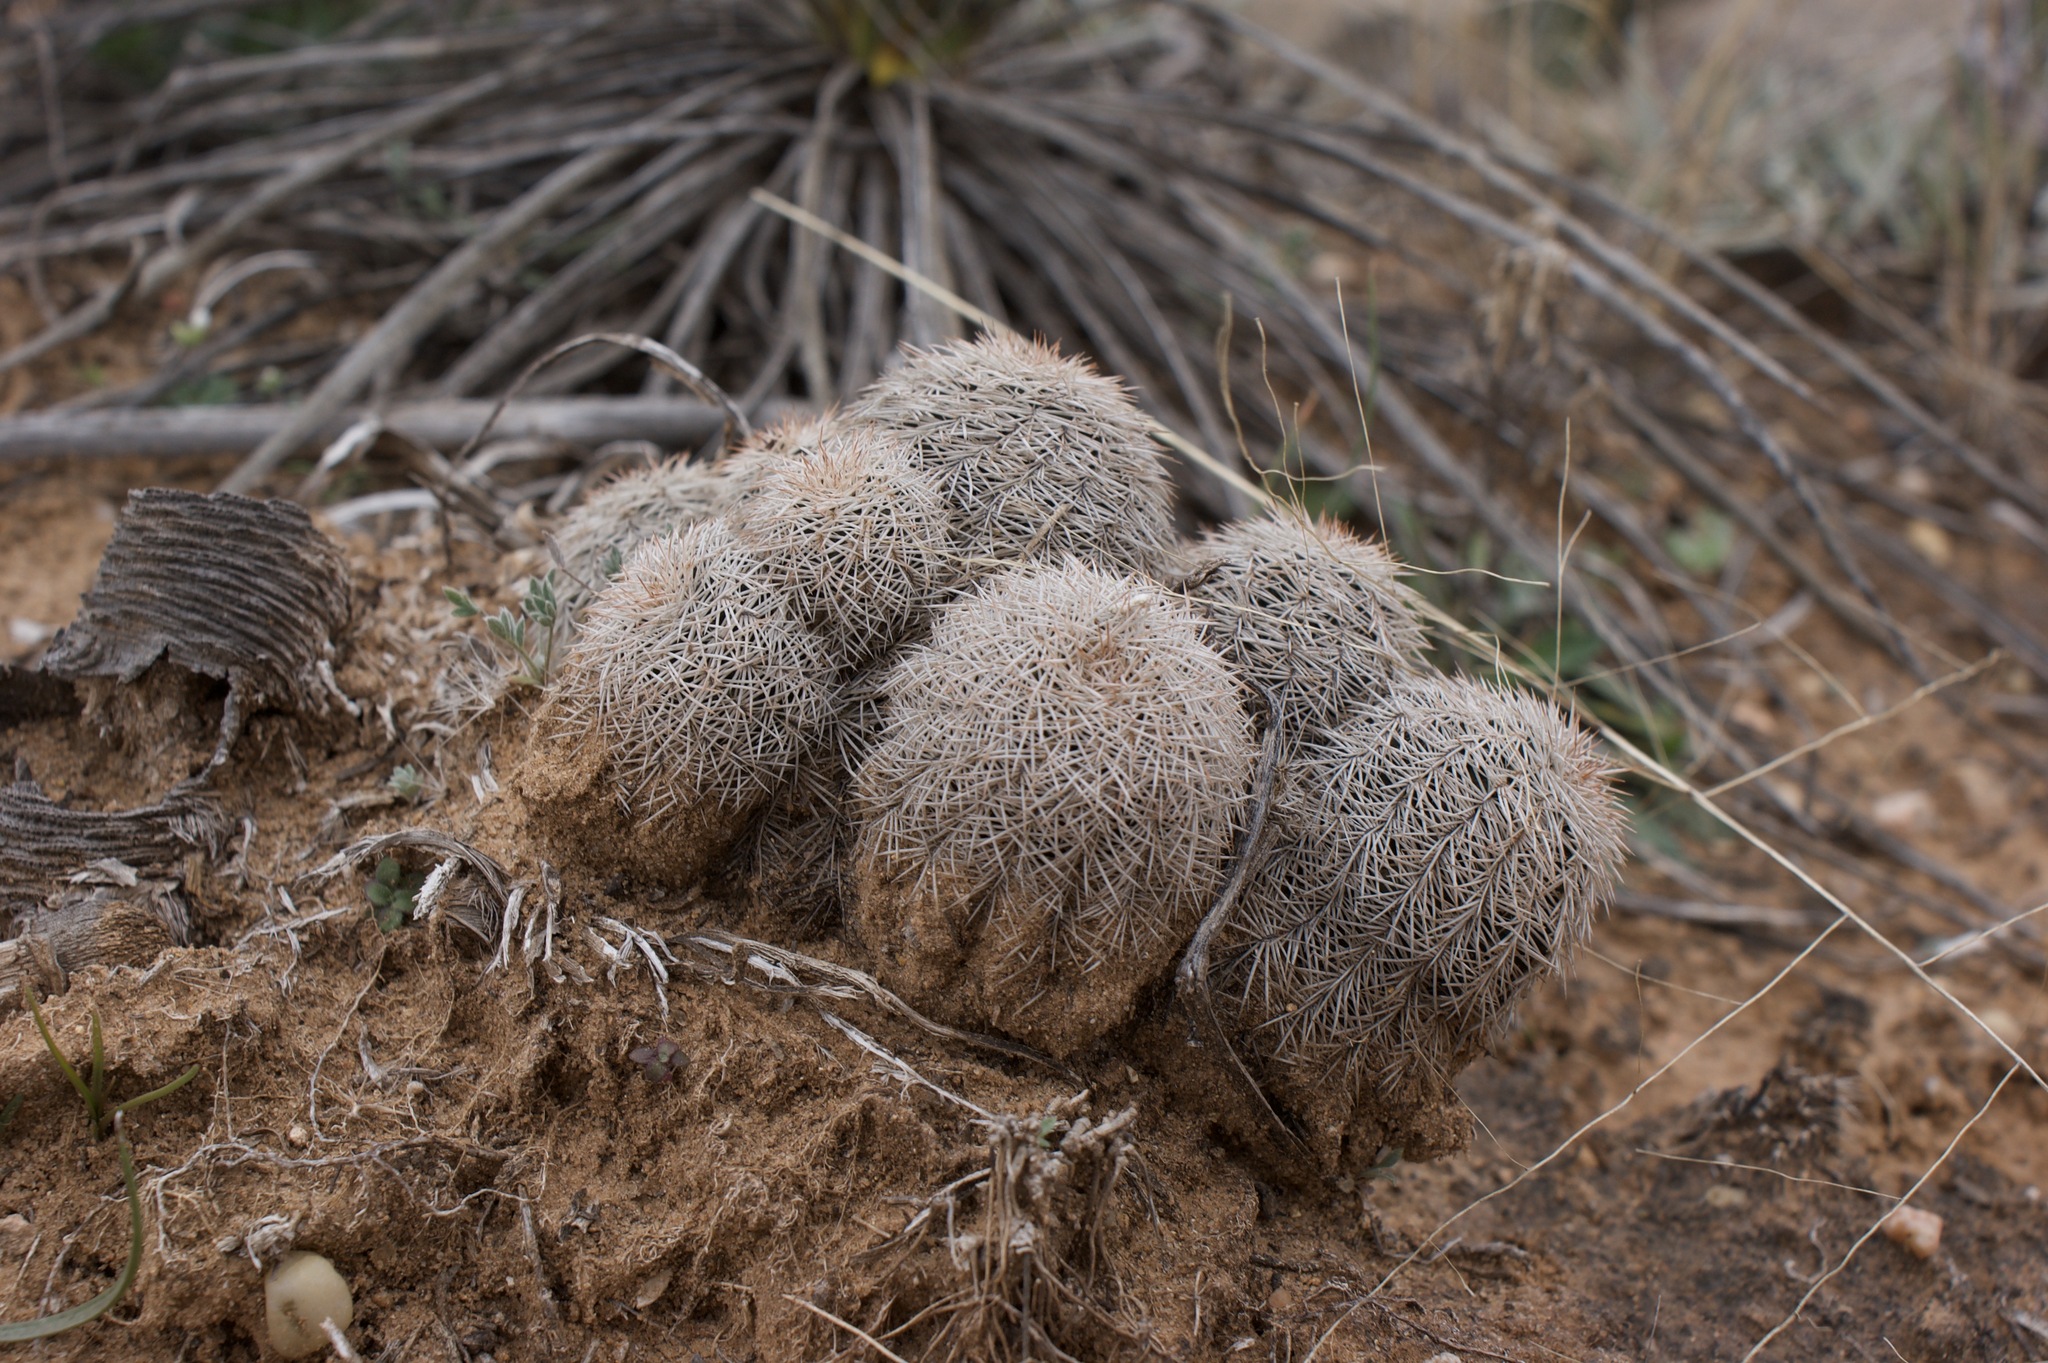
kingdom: Plantae
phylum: Tracheophyta
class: Magnoliopsida
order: Caryophyllales
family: Cactaceae
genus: Echinocereus
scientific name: Echinocereus reichenbachii
